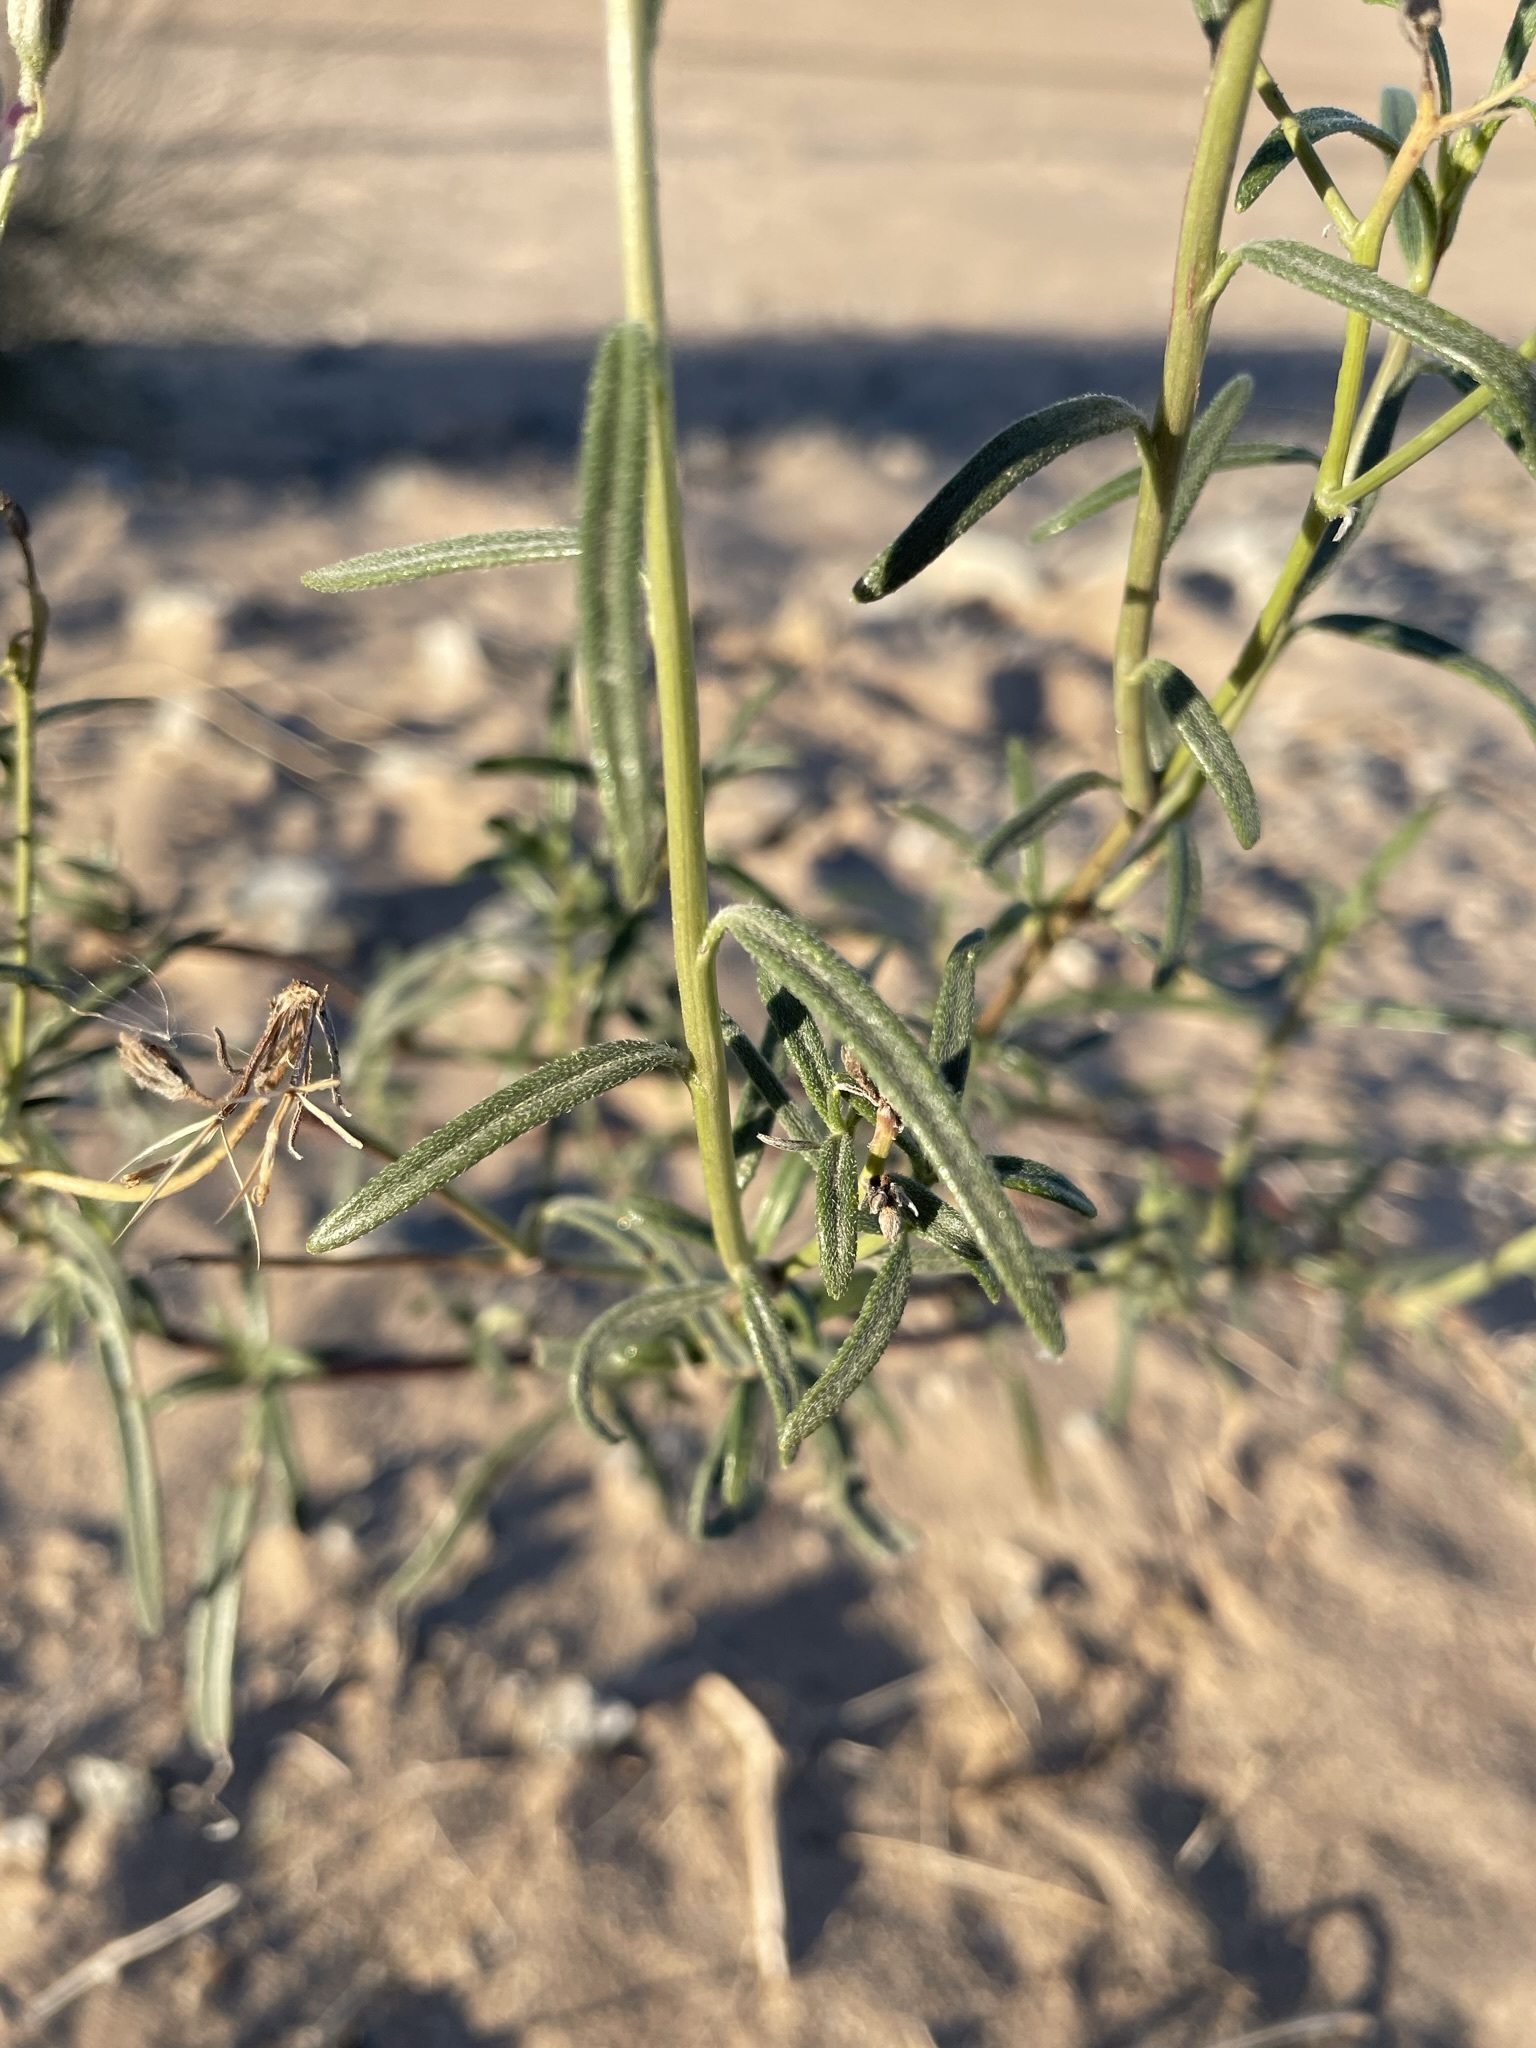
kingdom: Plantae
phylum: Tracheophyta
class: Magnoliopsida
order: Asterales
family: Asteraceae
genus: Palafoxia
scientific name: Palafoxia arida
